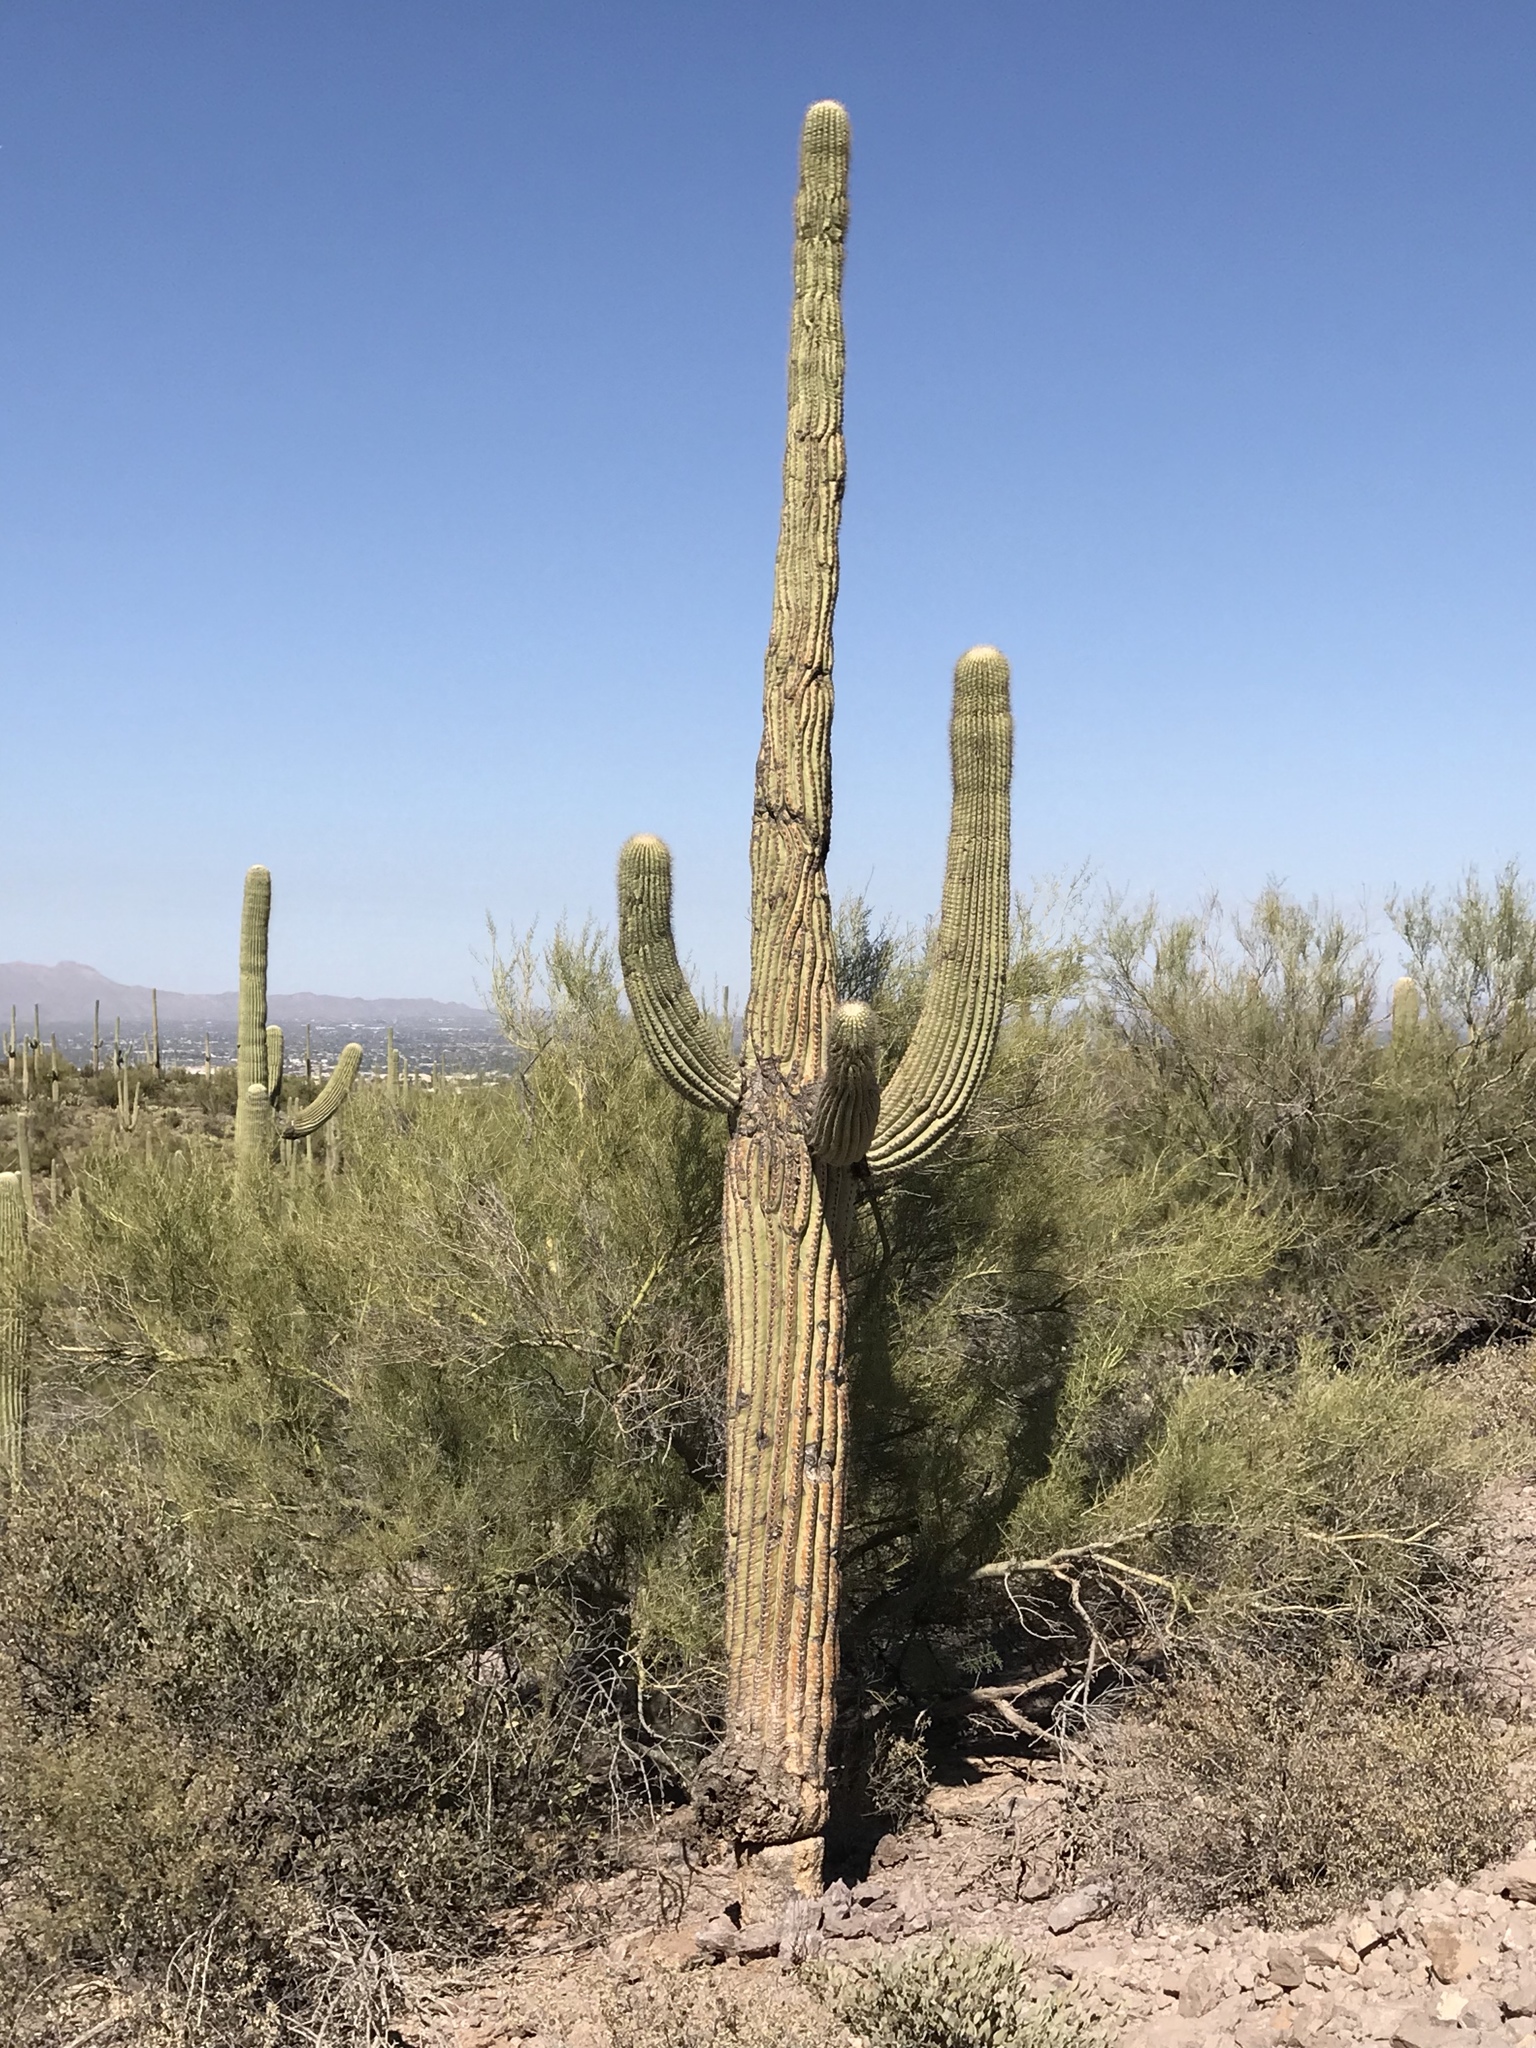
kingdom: Plantae
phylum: Tracheophyta
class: Magnoliopsida
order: Caryophyllales
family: Cactaceae
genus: Carnegiea
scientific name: Carnegiea gigantea
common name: Saguaro
